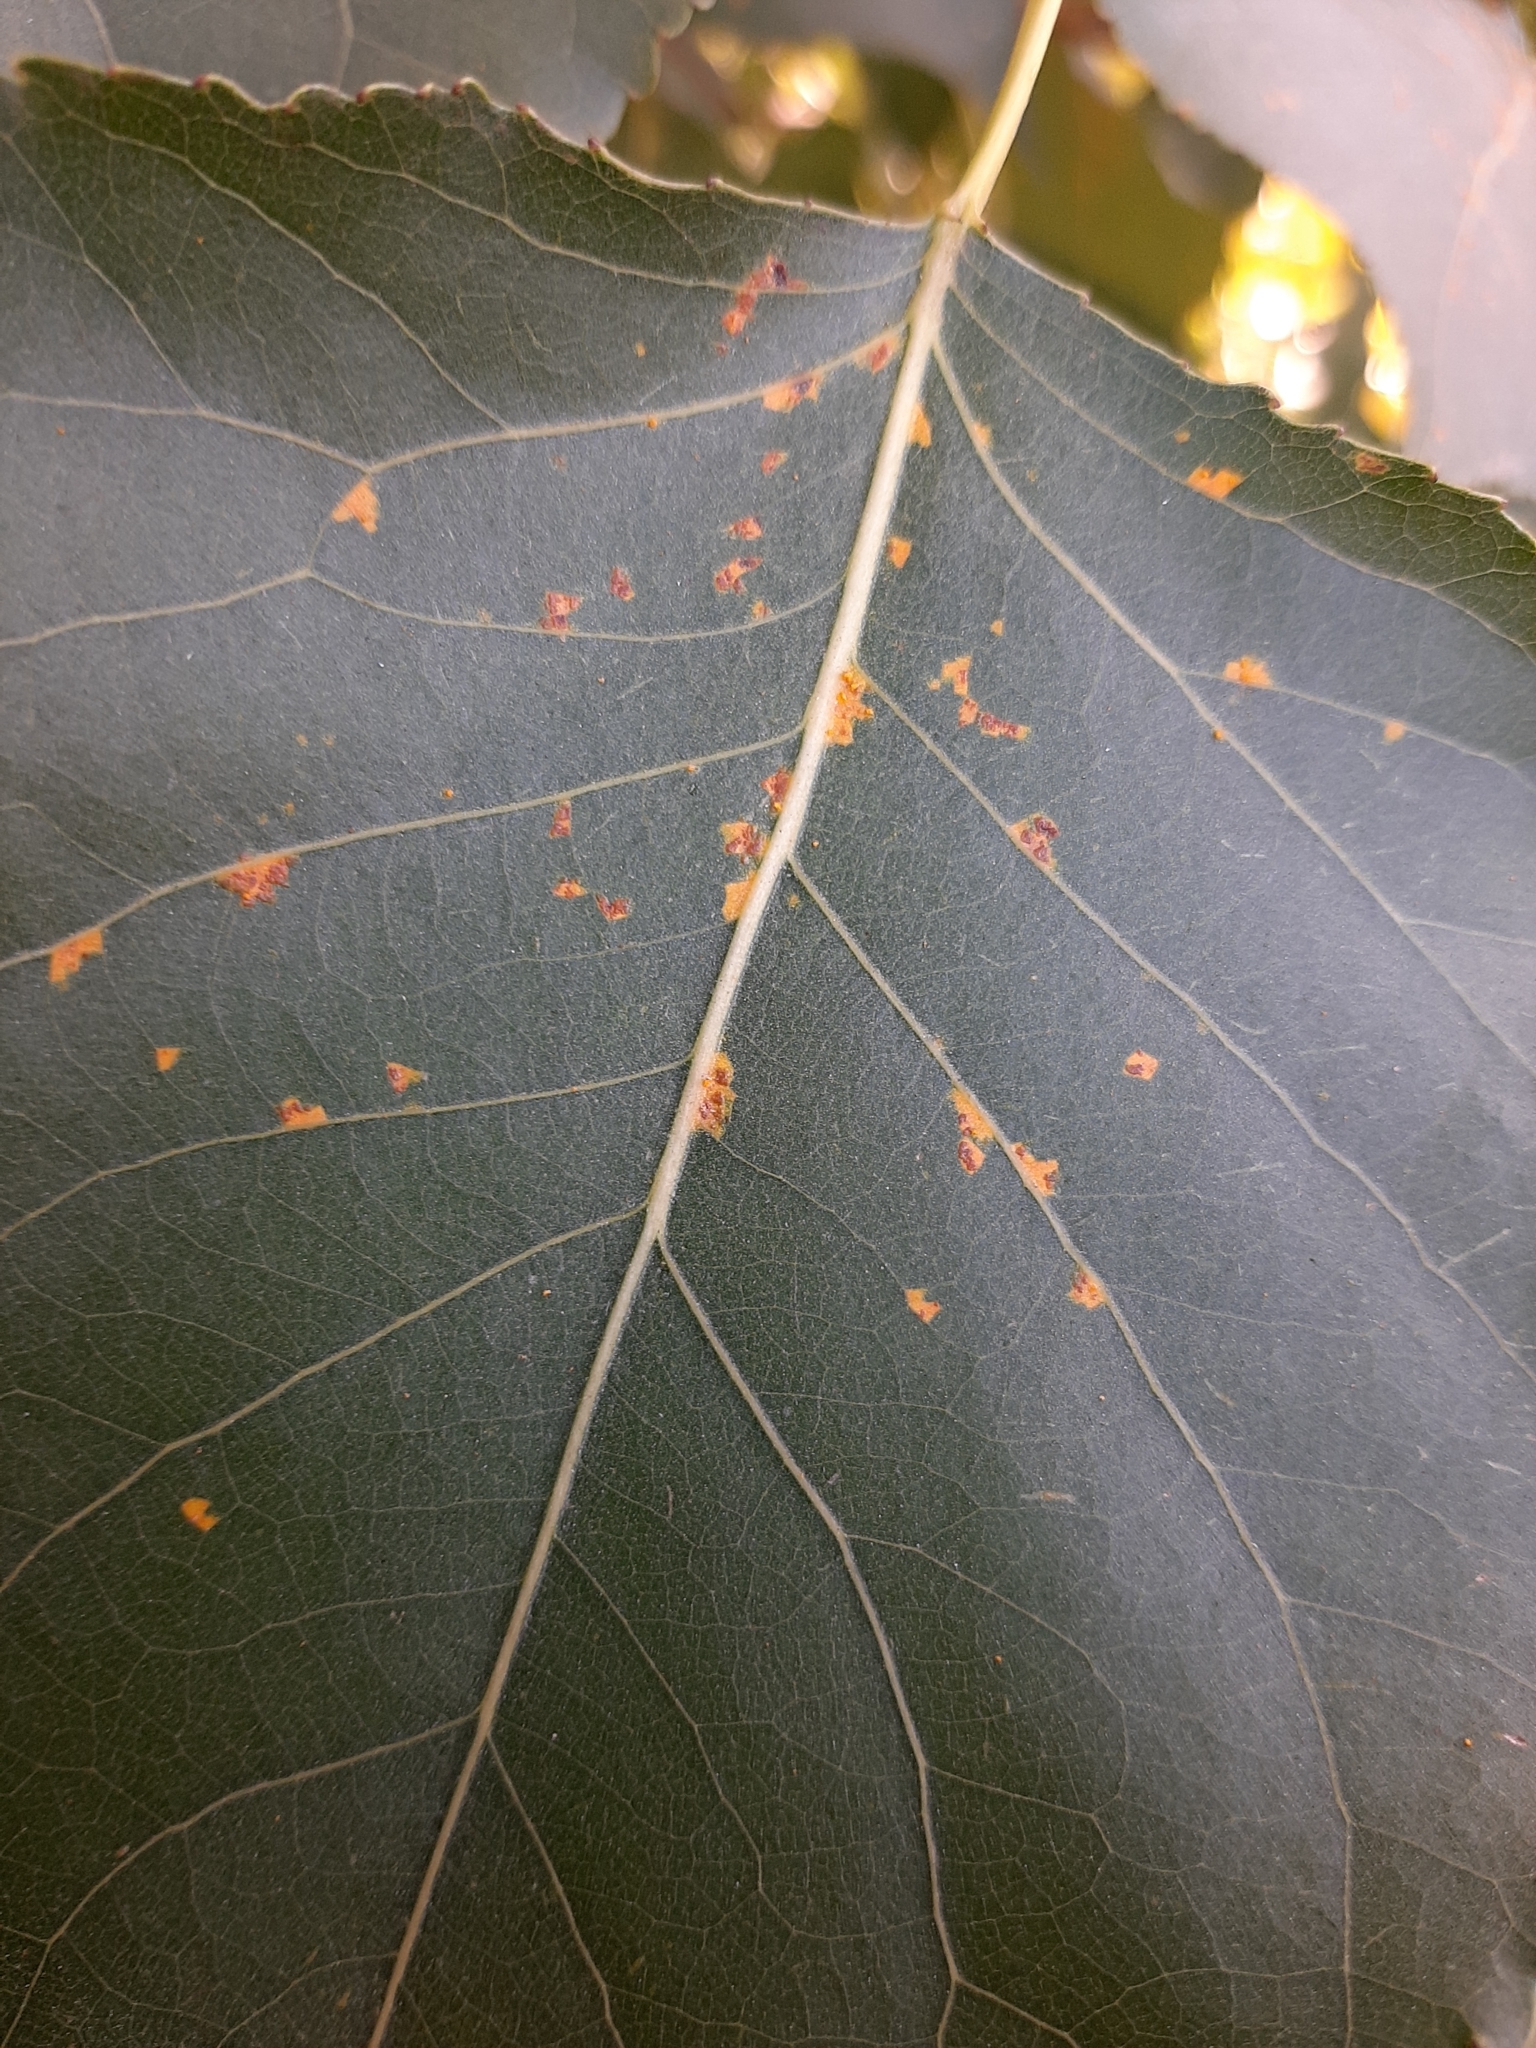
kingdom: Fungi
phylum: Basidiomycota
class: Pucciniomycetes
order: Pucciniales
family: Melampsoraceae
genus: Melampsora
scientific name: Melampsora laricis-populina
